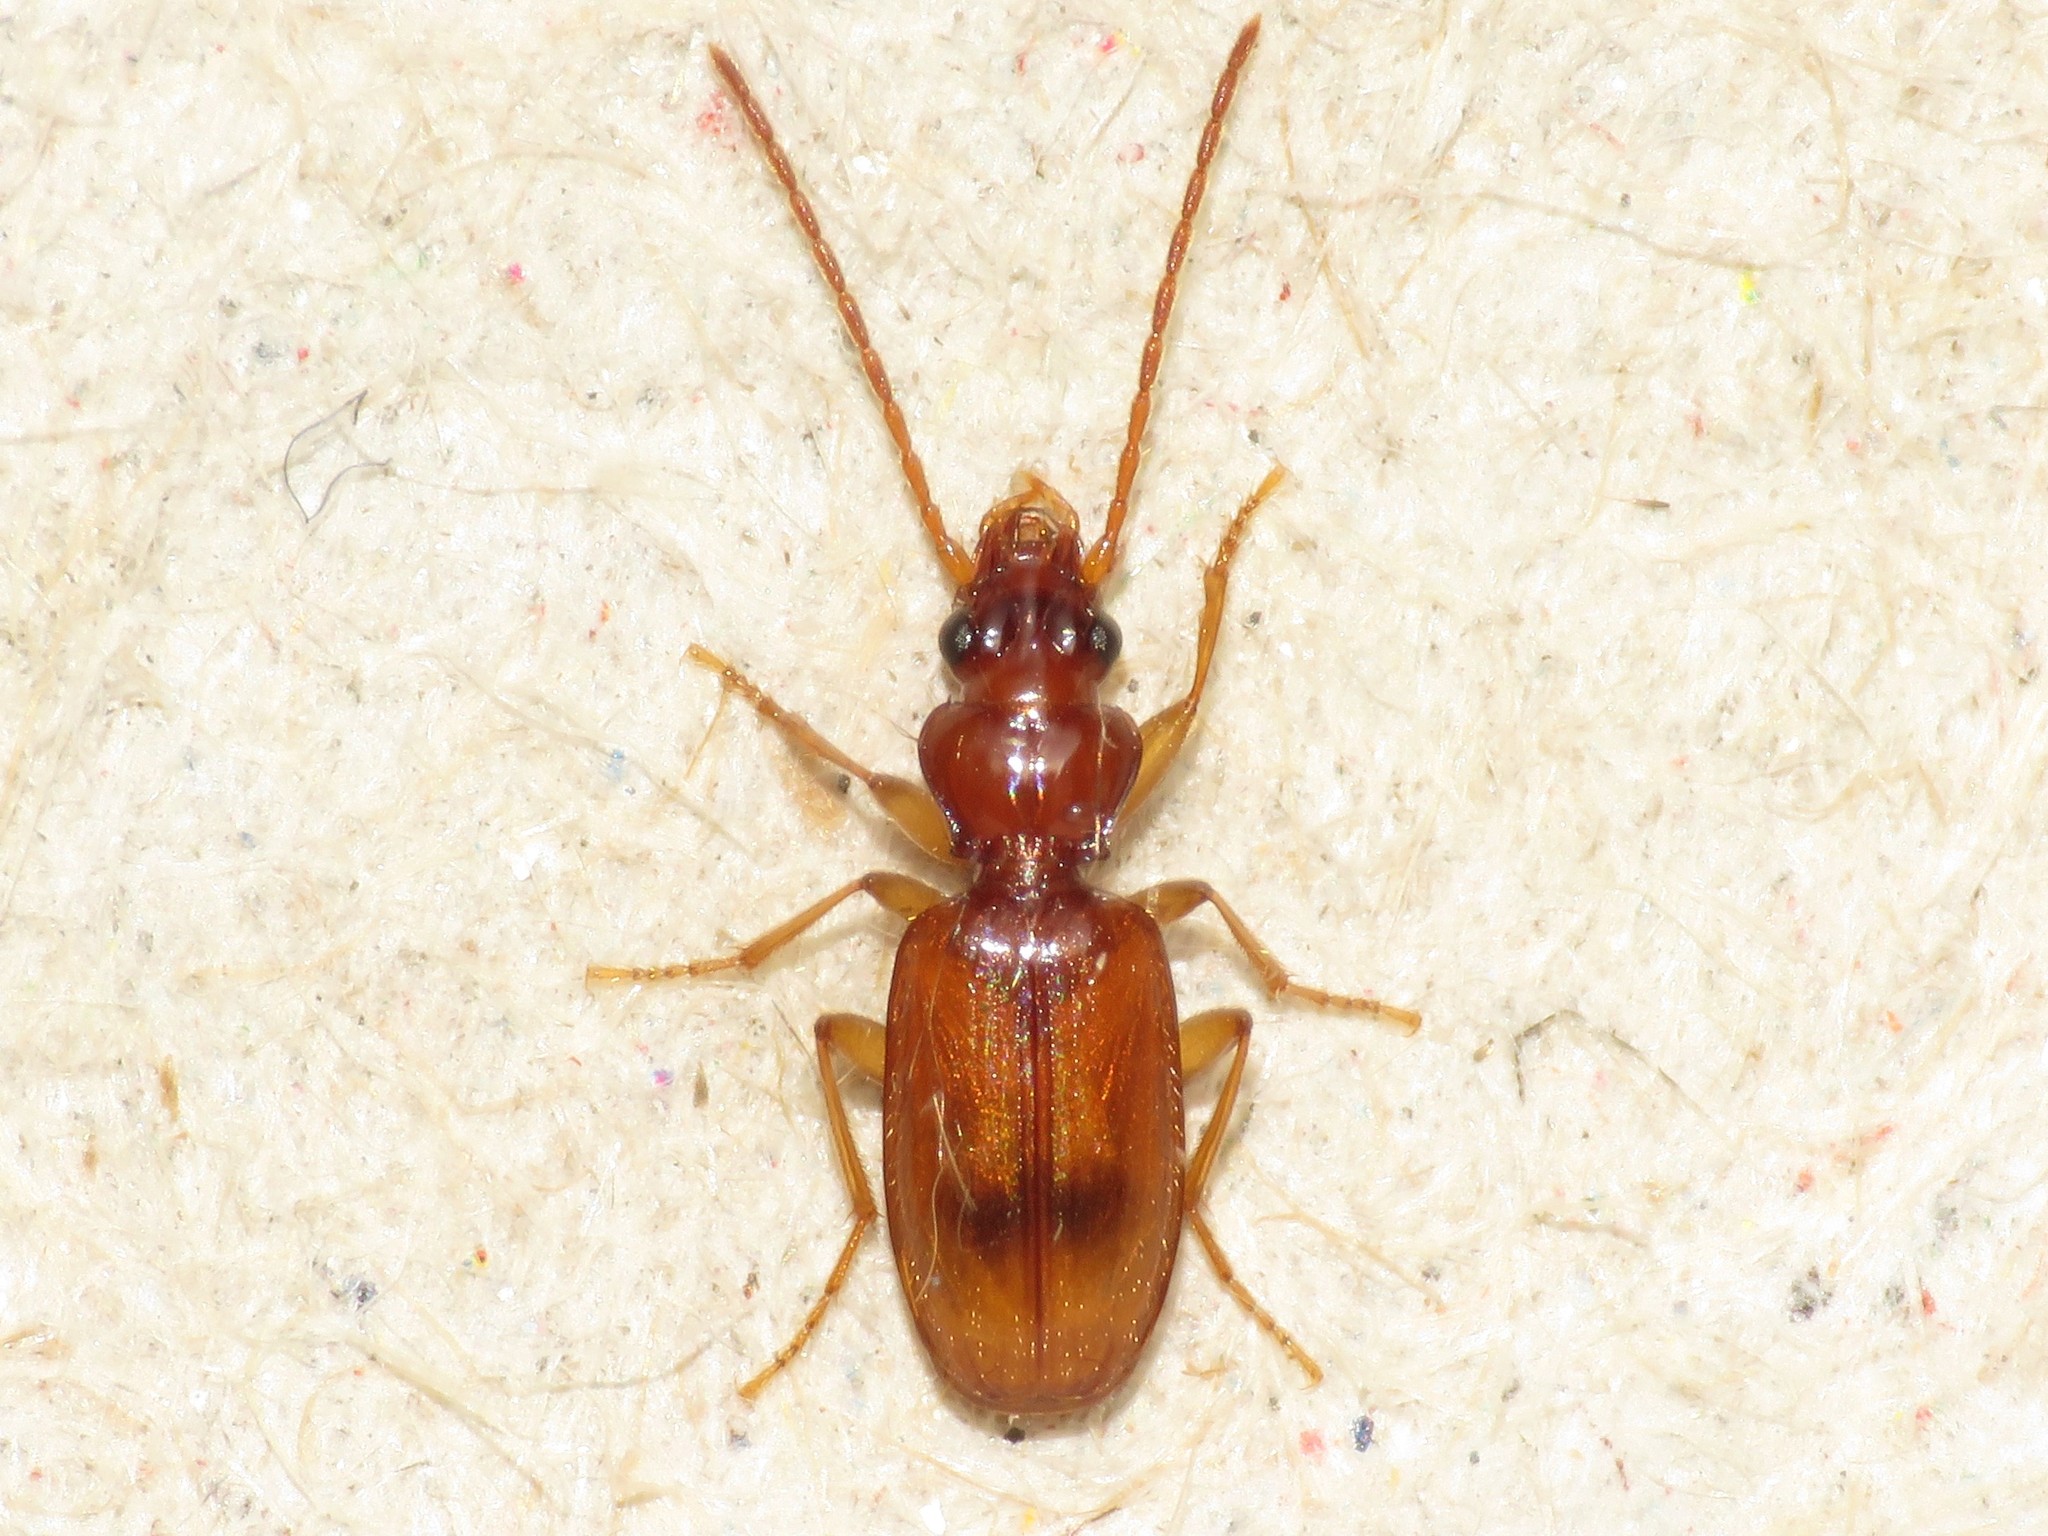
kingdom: Animalia
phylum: Arthropoda
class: Insecta
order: Coleoptera
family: Carabidae
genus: Blemus
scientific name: Blemus discus
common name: Discus riverbank ground beetle
